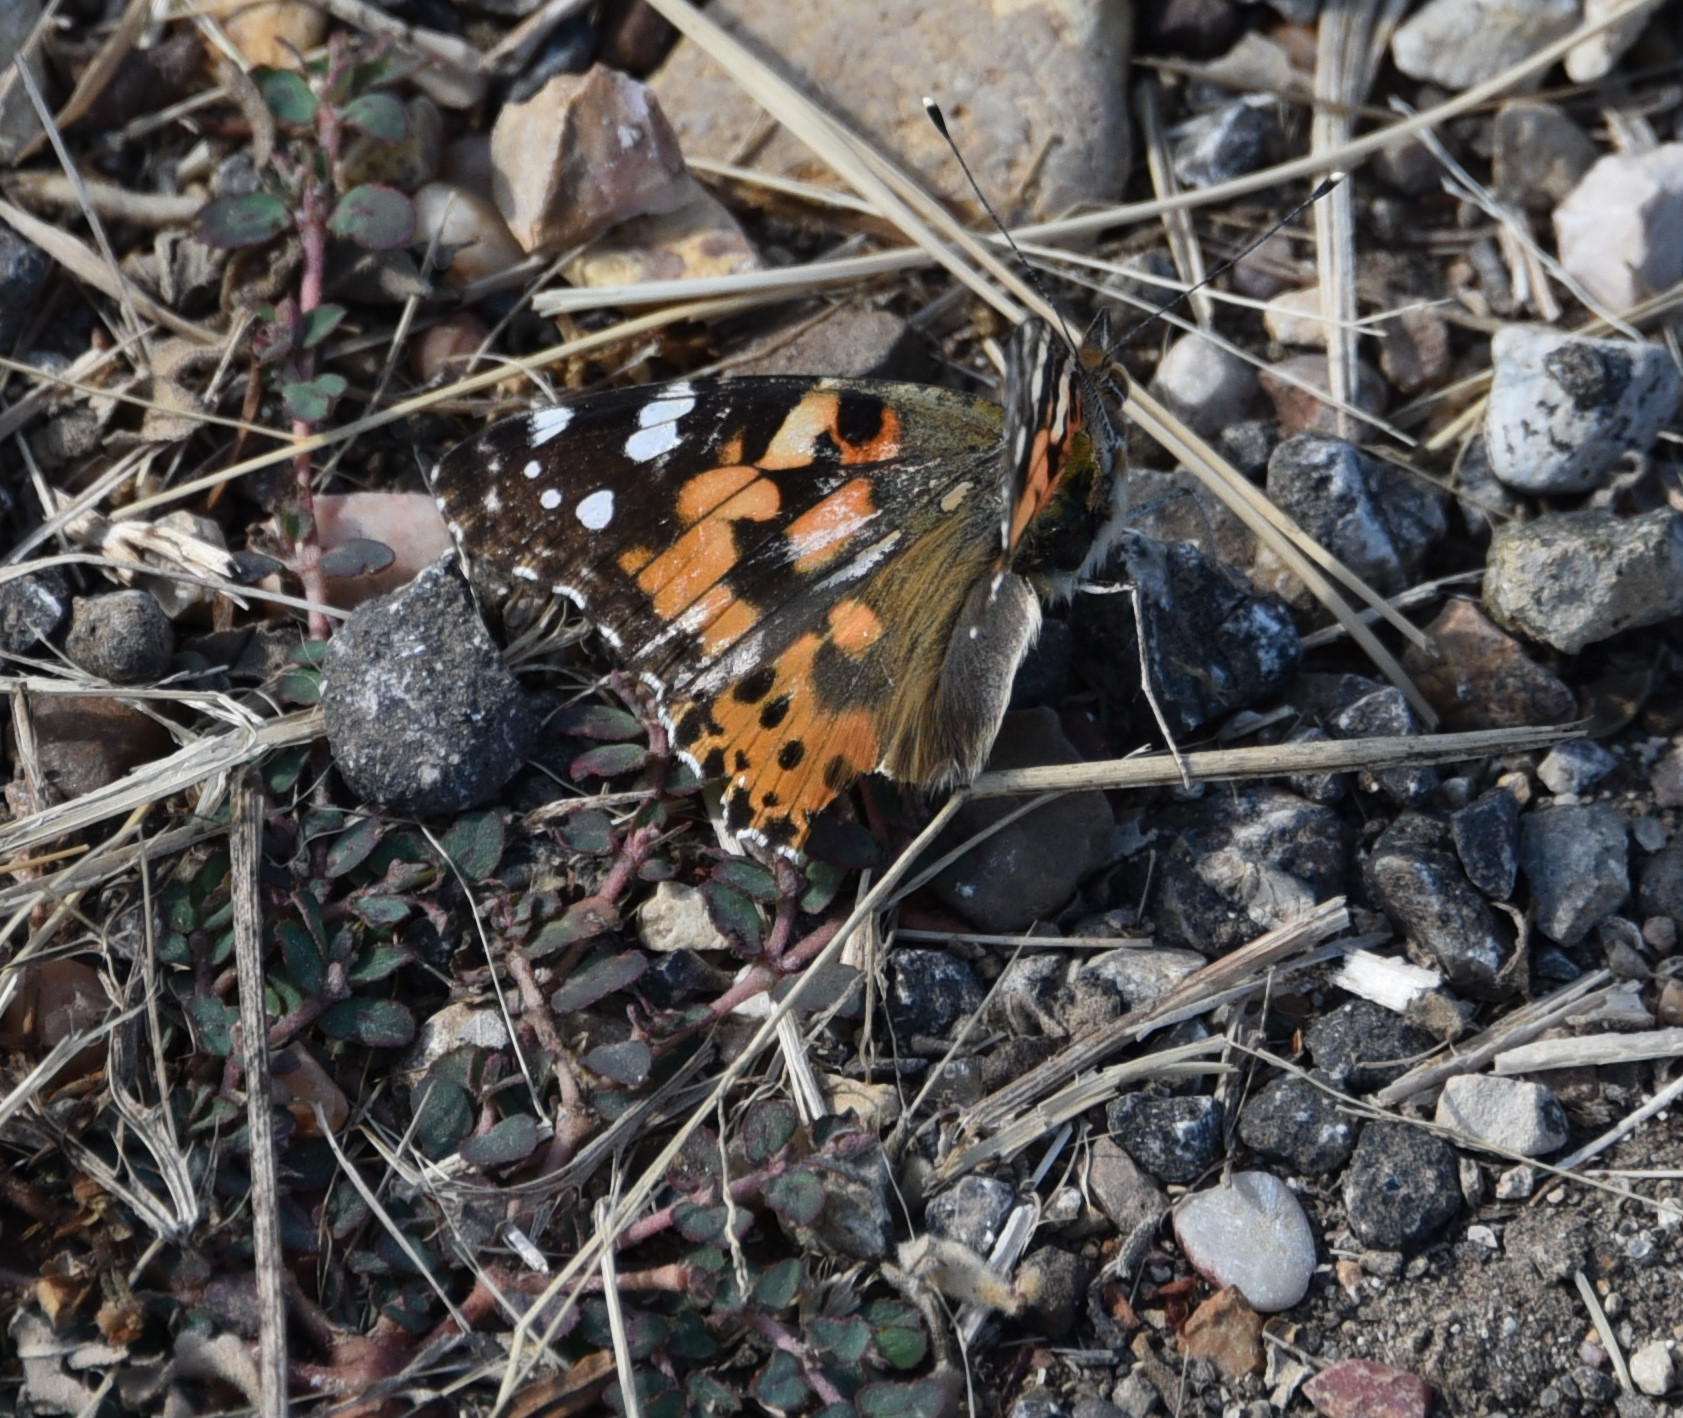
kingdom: Animalia
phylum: Arthropoda
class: Insecta
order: Lepidoptera
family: Nymphalidae
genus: Vanessa
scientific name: Vanessa cardui
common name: Painted lady
